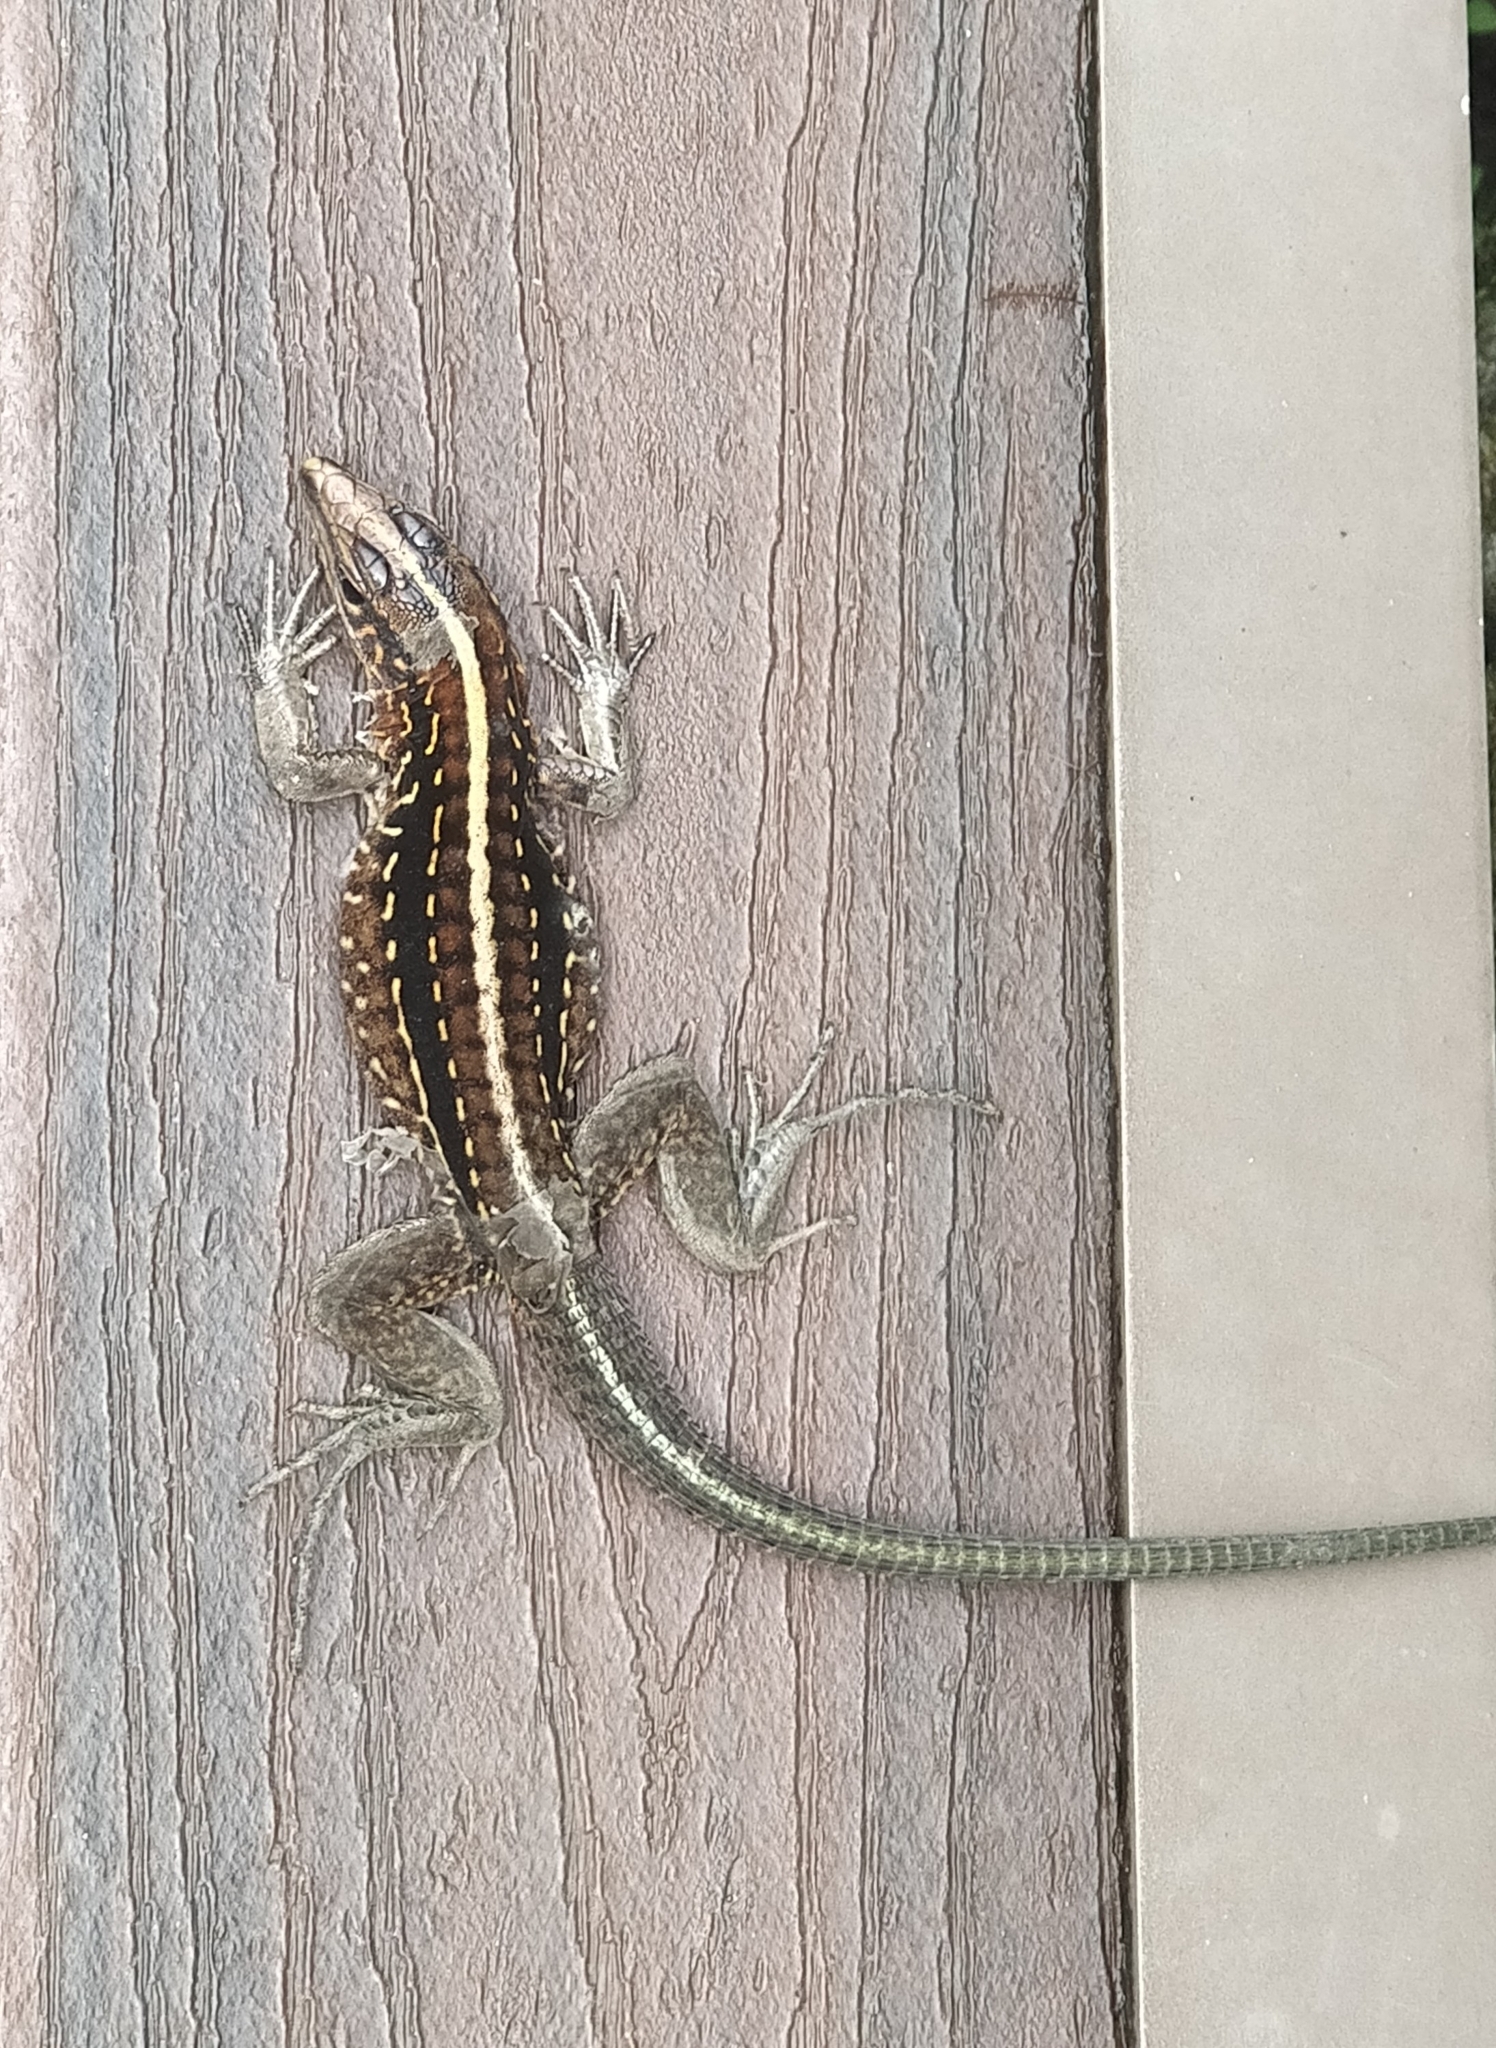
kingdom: Animalia
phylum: Chordata
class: Squamata
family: Teiidae
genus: Holcosus
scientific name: Holcosus festivus
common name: Middle american ameiva
